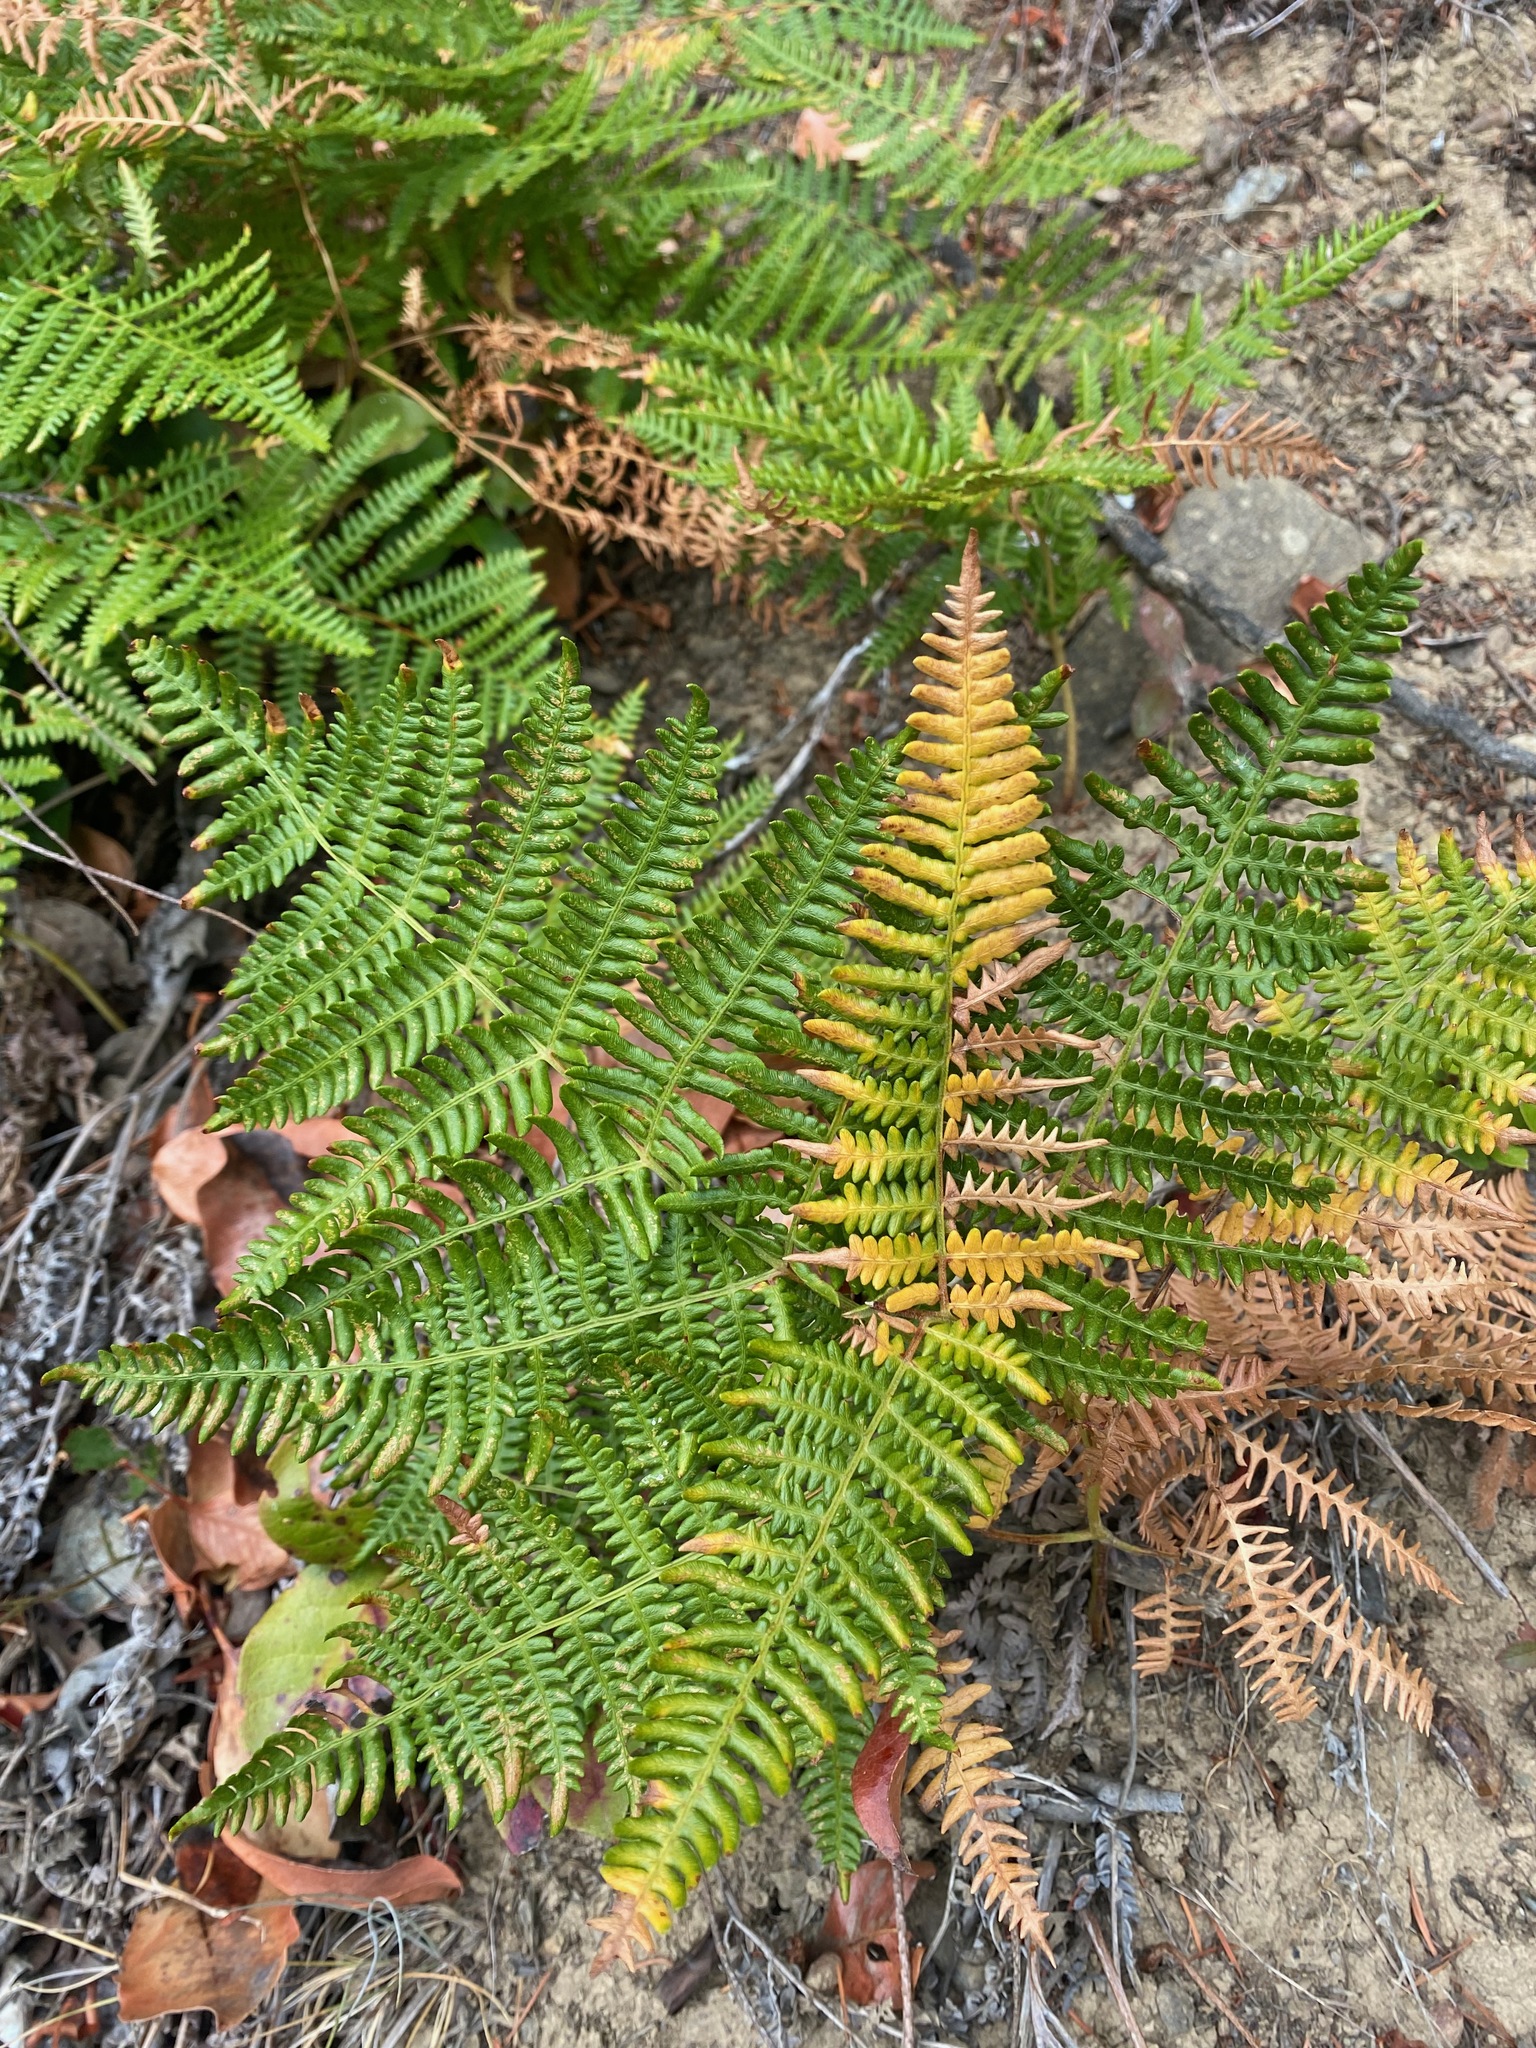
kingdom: Plantae
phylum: Tracheophyta
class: Polypodiopsida
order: Polypodiales
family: Dennstaedtiaceae
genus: Pteridium
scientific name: Pteridium aquilinum
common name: Bracken
